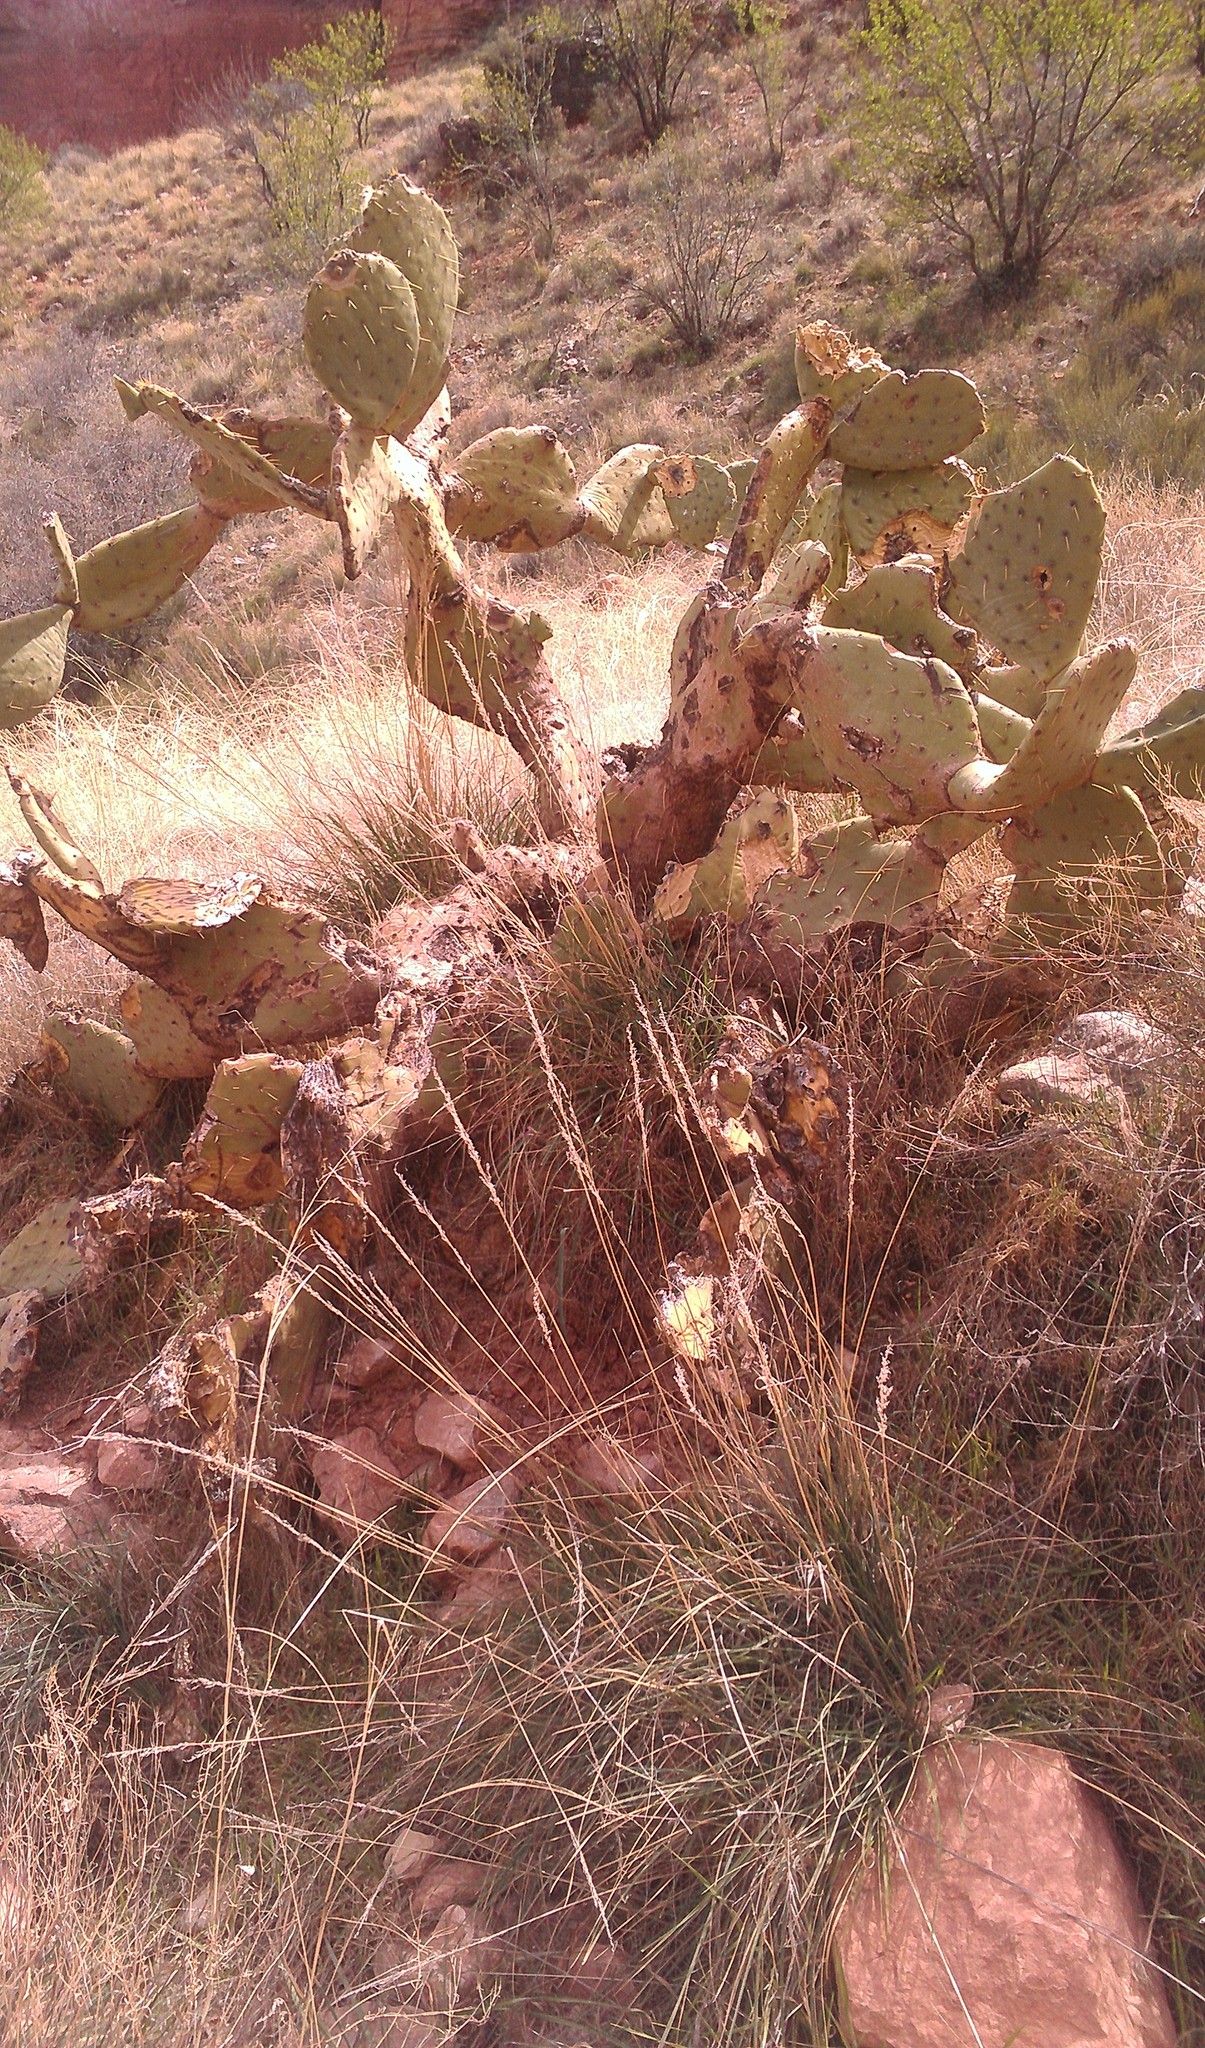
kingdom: Plantae
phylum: Tracheophyta
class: Magnoliopsida
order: Caryophyllales
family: Cactaceae
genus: Opuntia
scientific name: Opuntia chlorotica
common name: Dollar-joint prickly-pear
